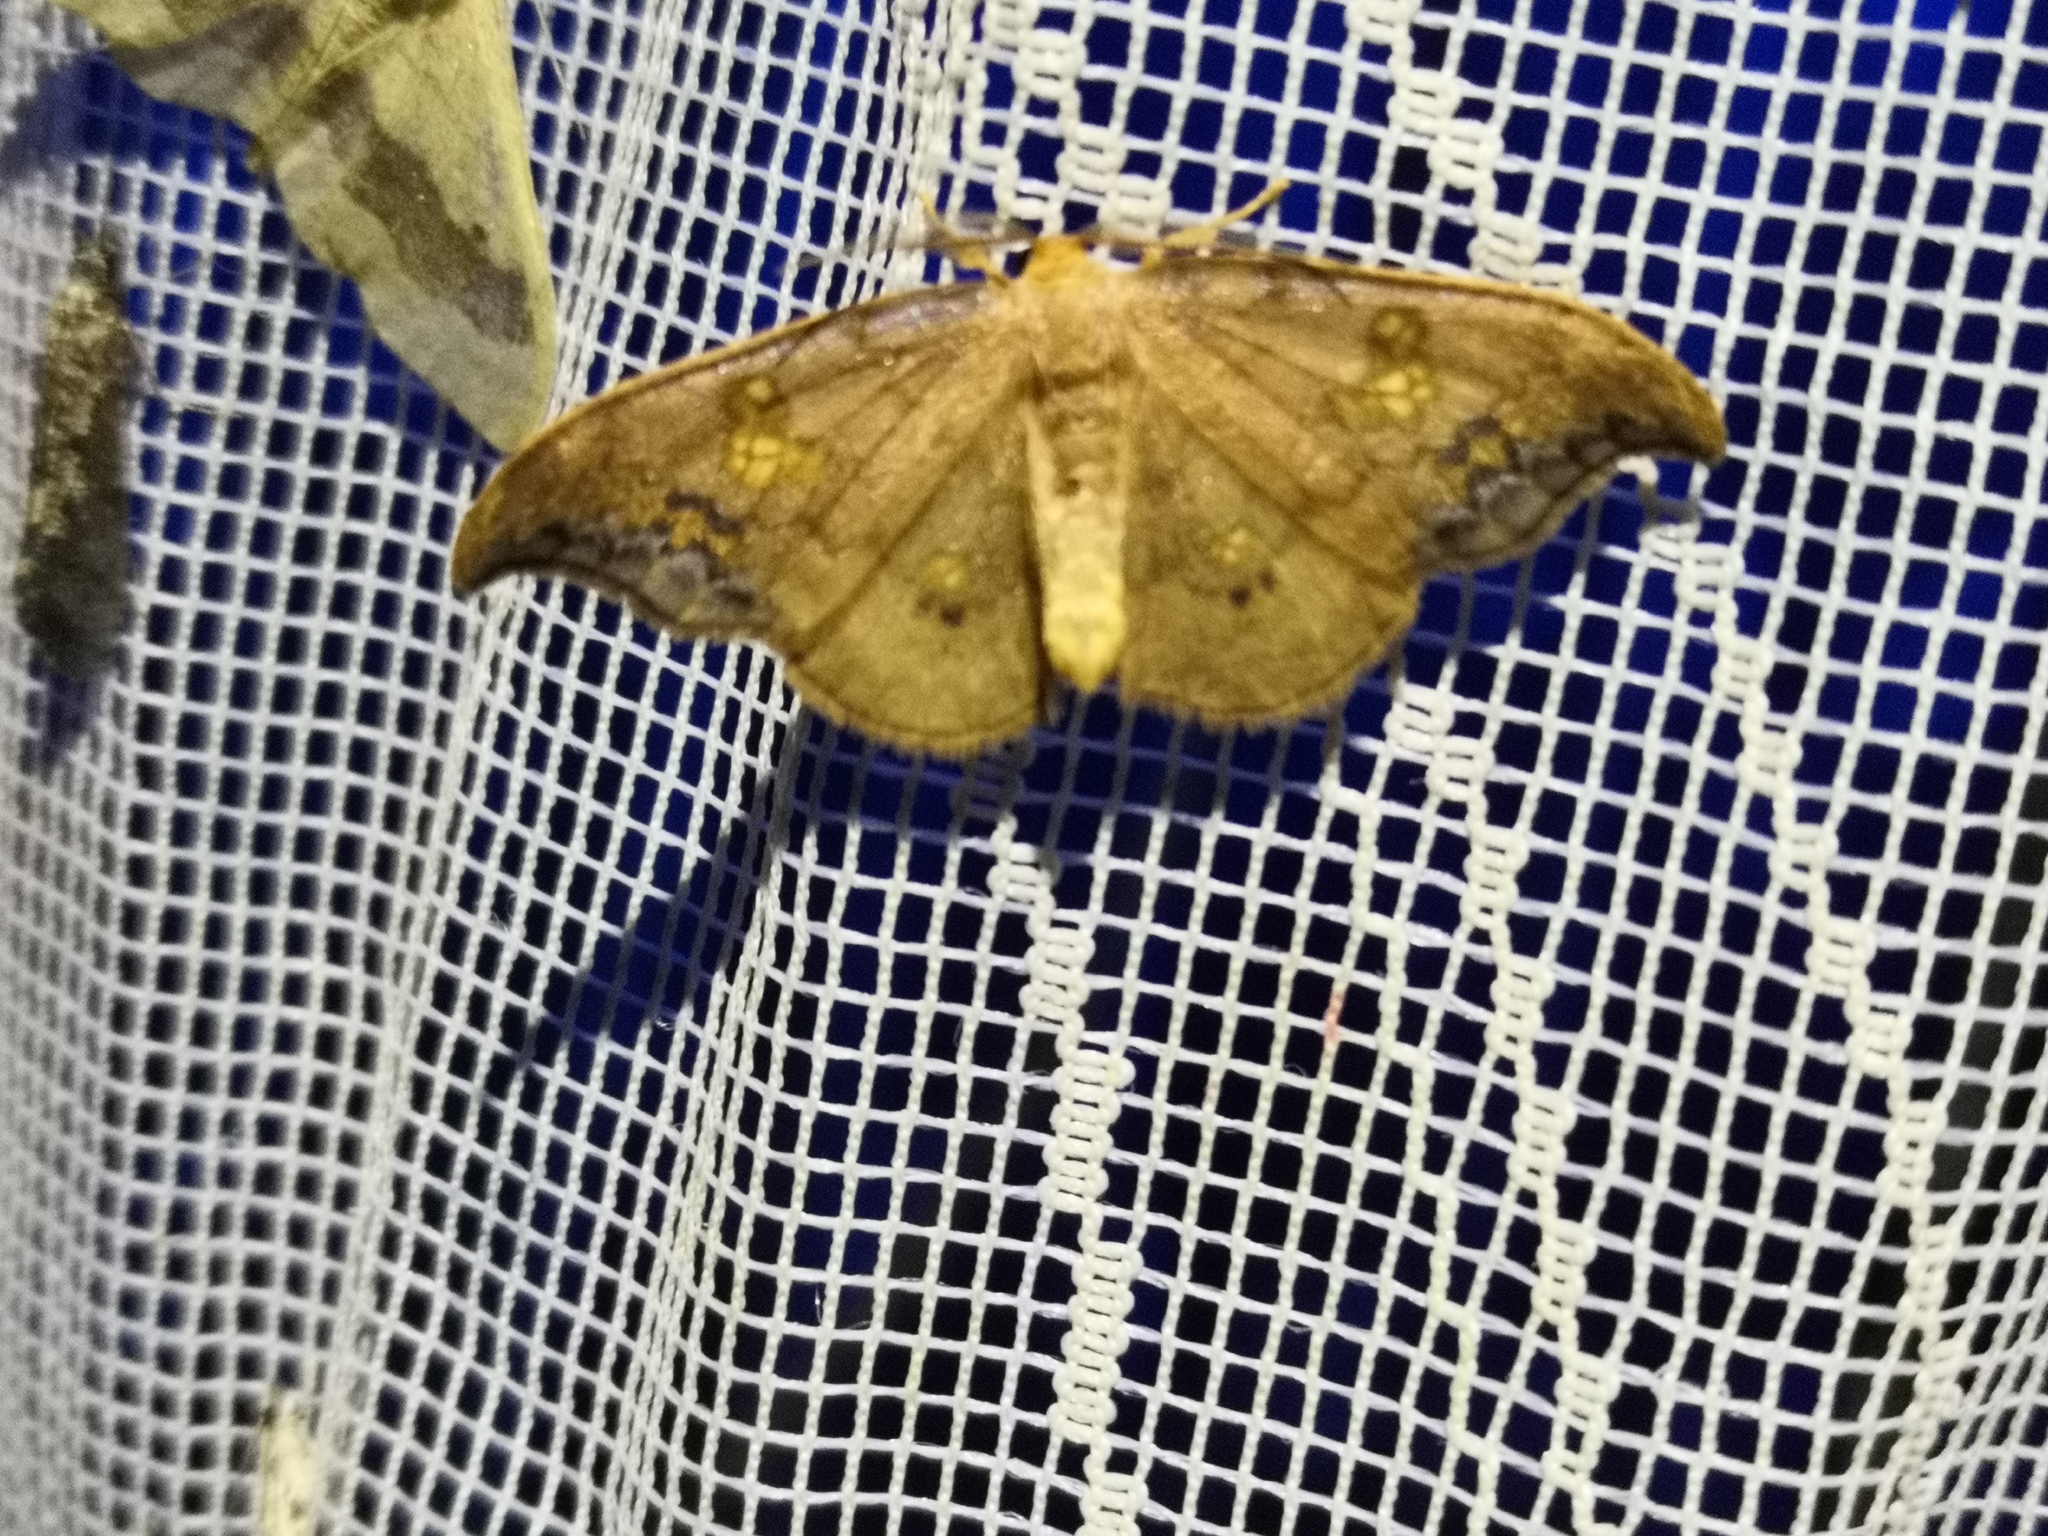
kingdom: Animalia
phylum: Arthropoda
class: Insecta
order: Lepidoptera
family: Drepanidae
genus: Sabra
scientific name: Sabra harpagula
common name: Scarce hook-tip
